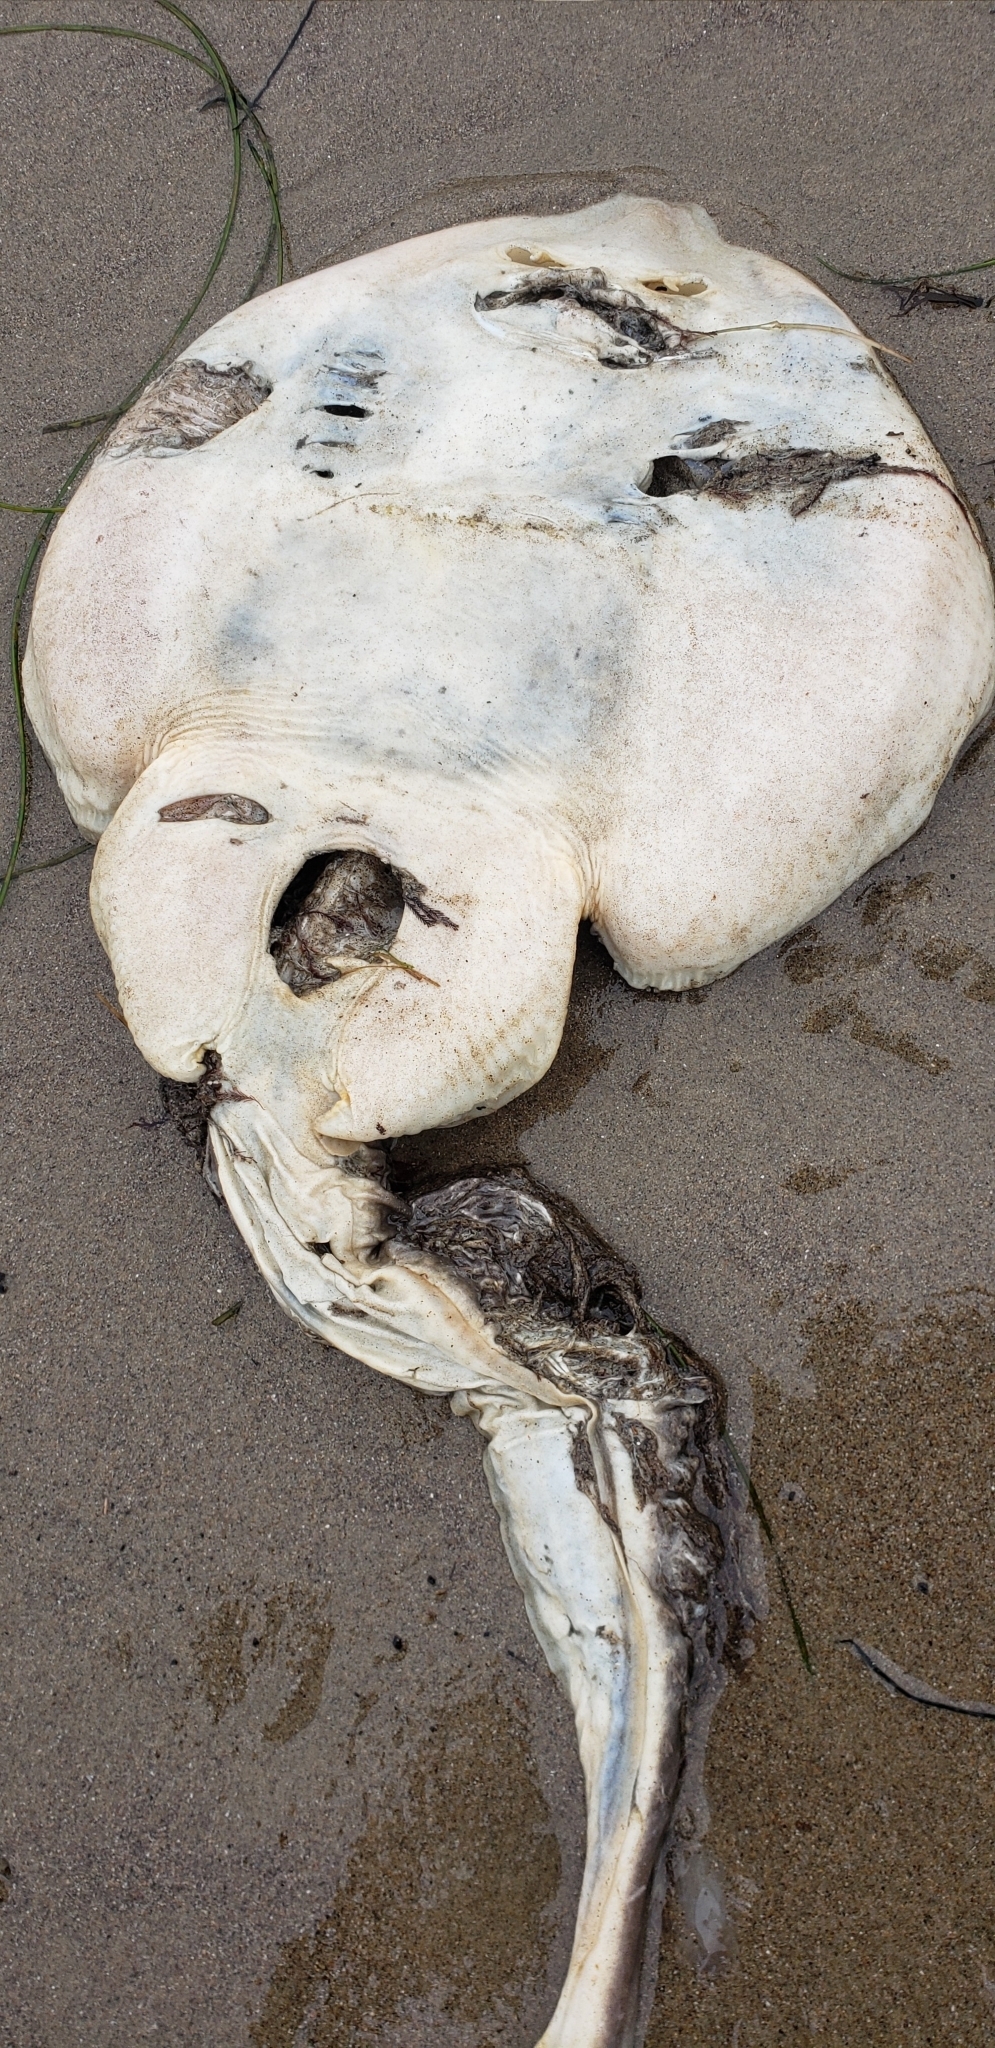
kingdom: Animalia
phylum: Chordata
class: Elasmobranchii
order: Rhinopristiformes
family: Rhinobatidae
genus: Platyrhinoidis
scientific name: Platyrhinoidis triseriata
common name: Thornback
